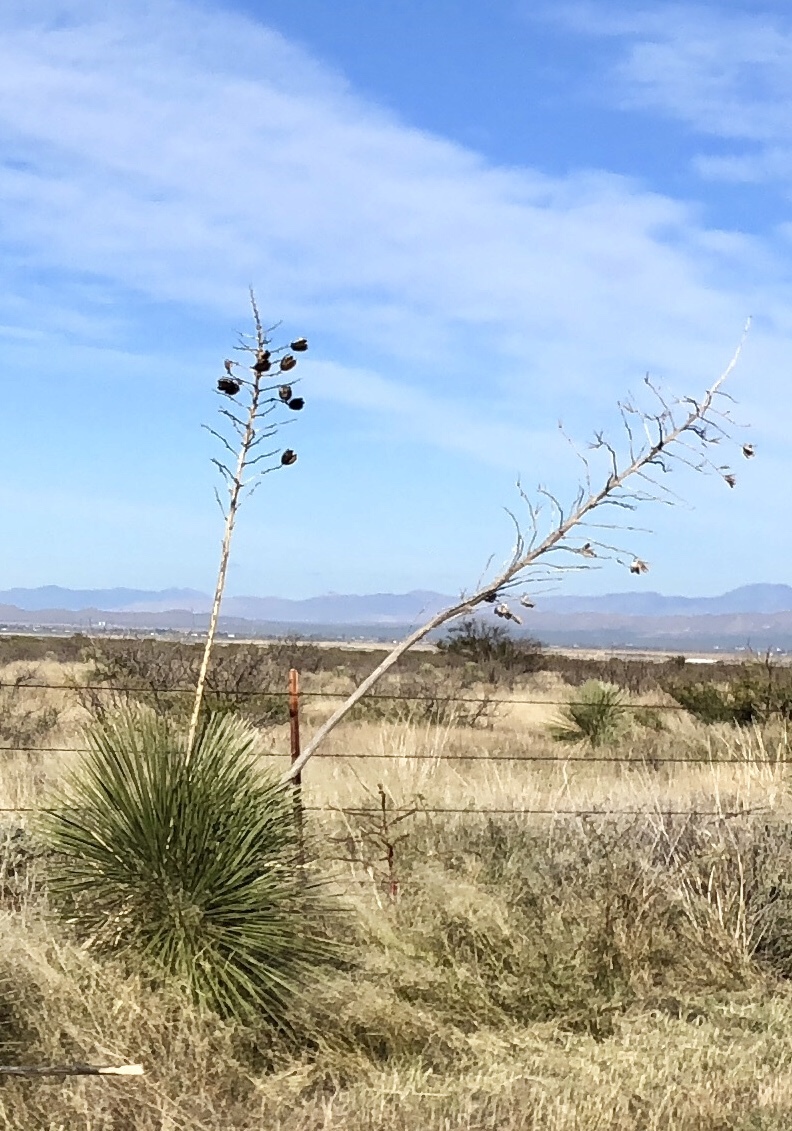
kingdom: Plantae
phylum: Tracheophyta
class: Liliopsida
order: Asparagales
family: Asparagaceae
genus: Yucca
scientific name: Yucca elata
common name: Palmella
